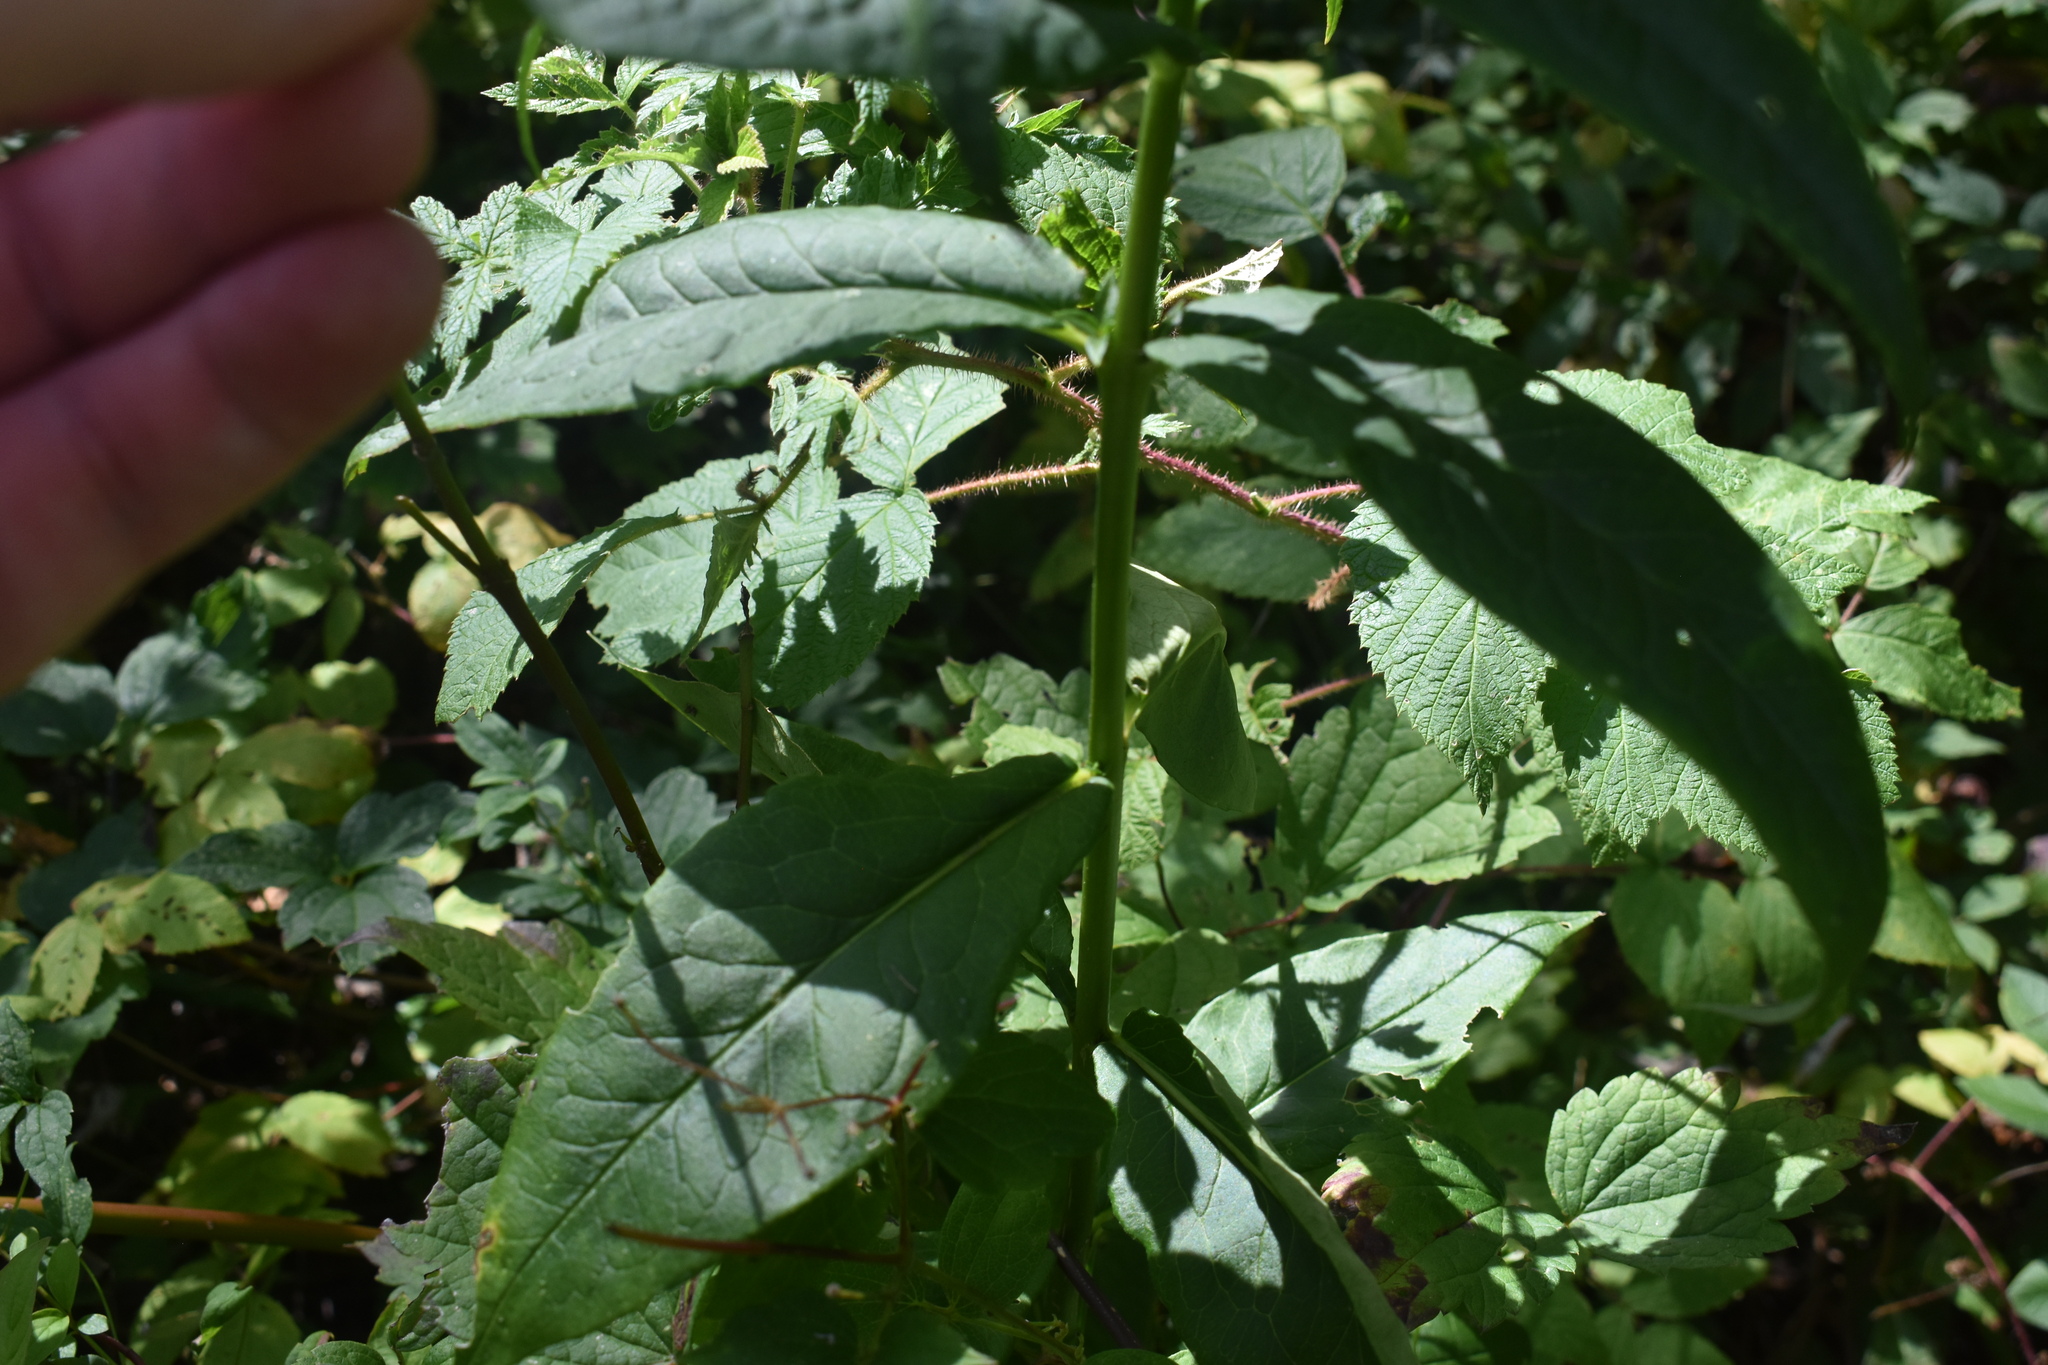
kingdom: Plantae
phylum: Tracheophyta
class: Magnoliopsida
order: Ericales
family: Polemoniaceae
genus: Phlox
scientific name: Phlox paniculata
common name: Fall phlox
